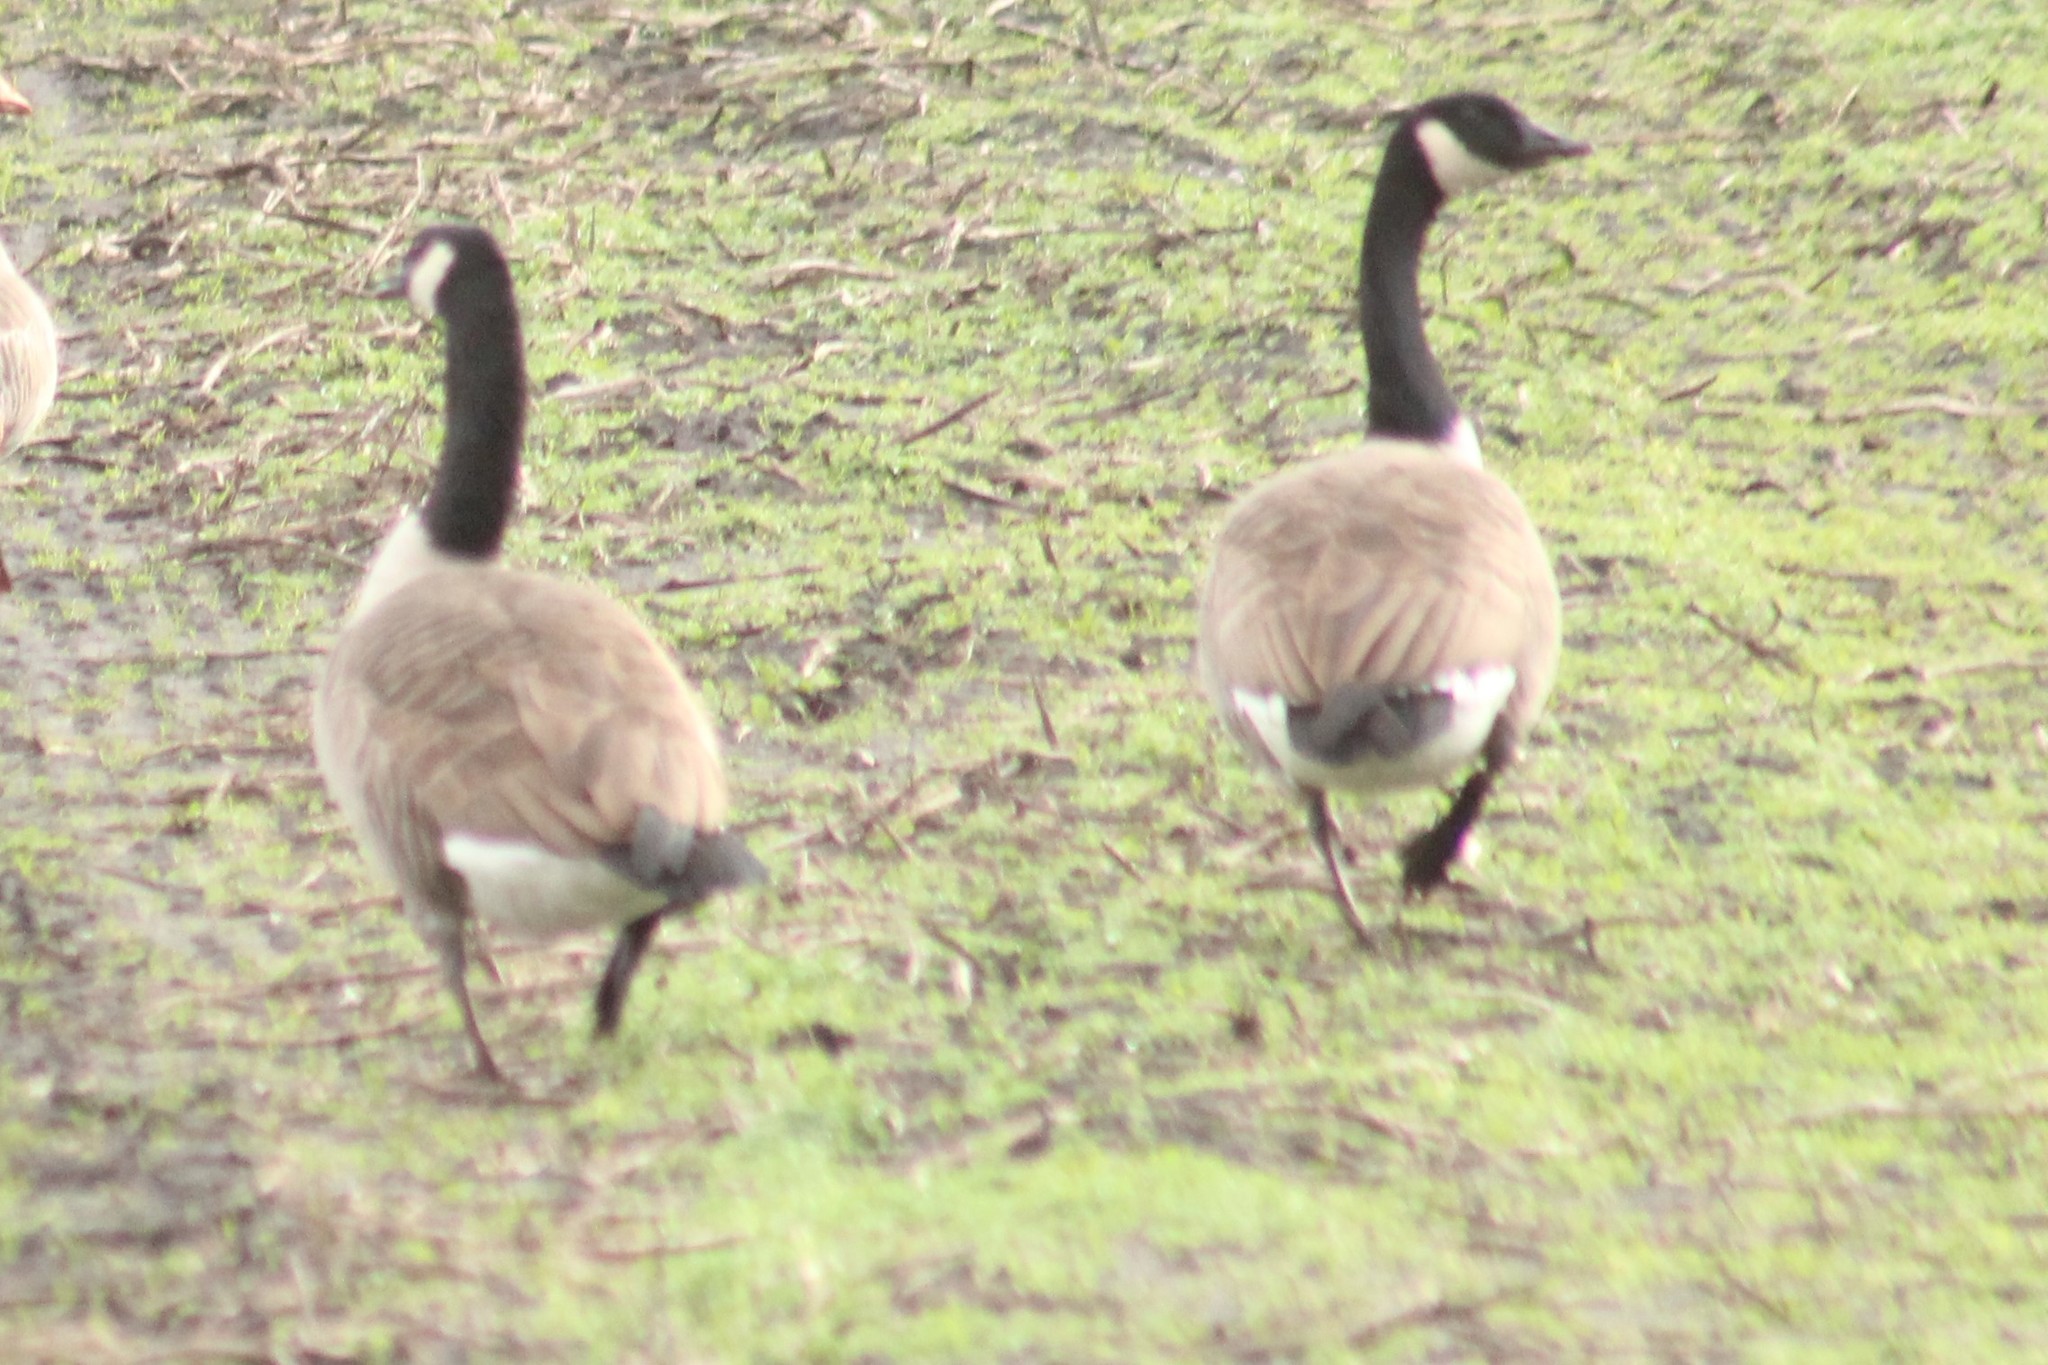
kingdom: Animalia
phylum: Chordata
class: Aves
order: Anseriformes
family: Anatidae
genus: Branta
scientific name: Branta canadensis
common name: Canada goose
